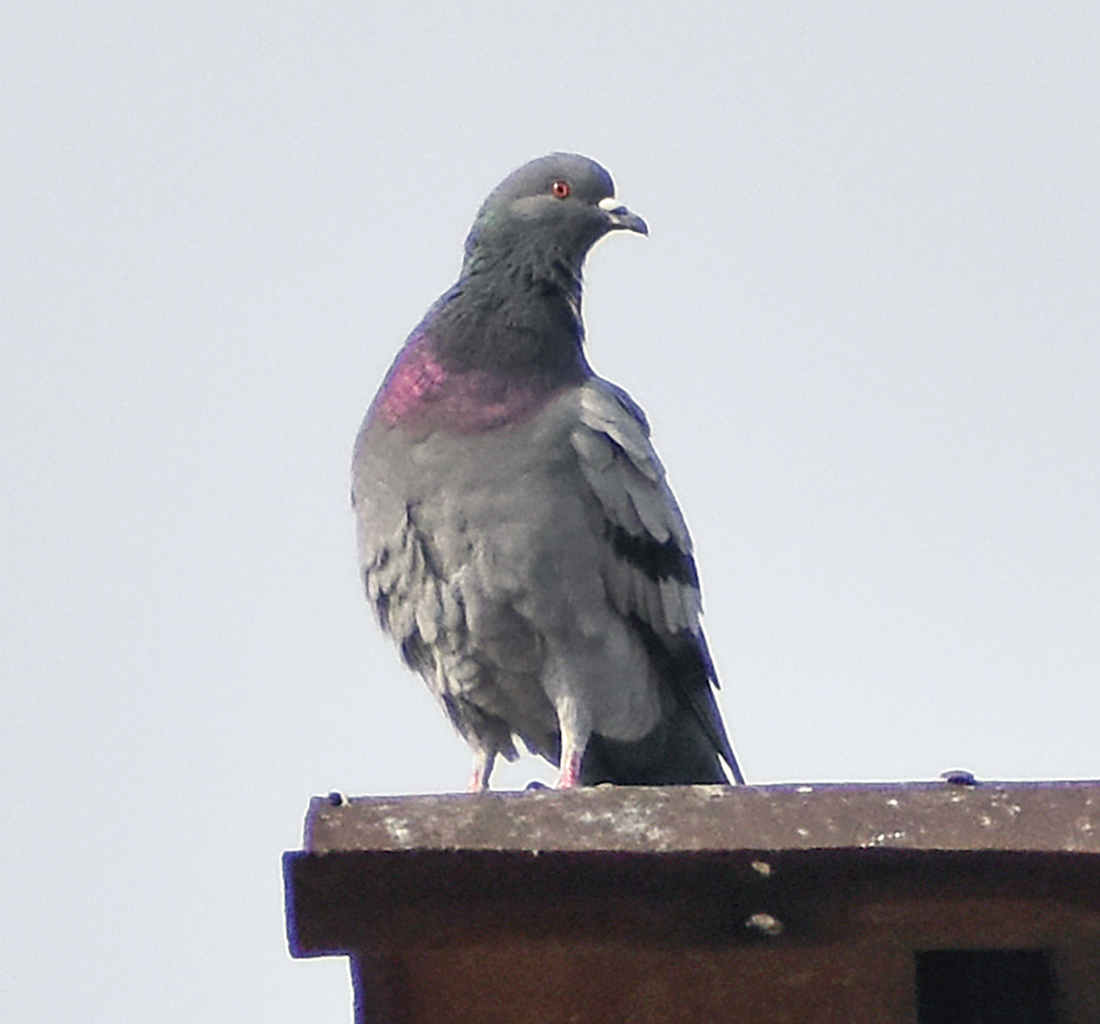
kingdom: Animalia
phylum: Chordata
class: Aves
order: Columbiformes
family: Columbidae
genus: Columba
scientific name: Columba livia
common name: Rock pigeon
